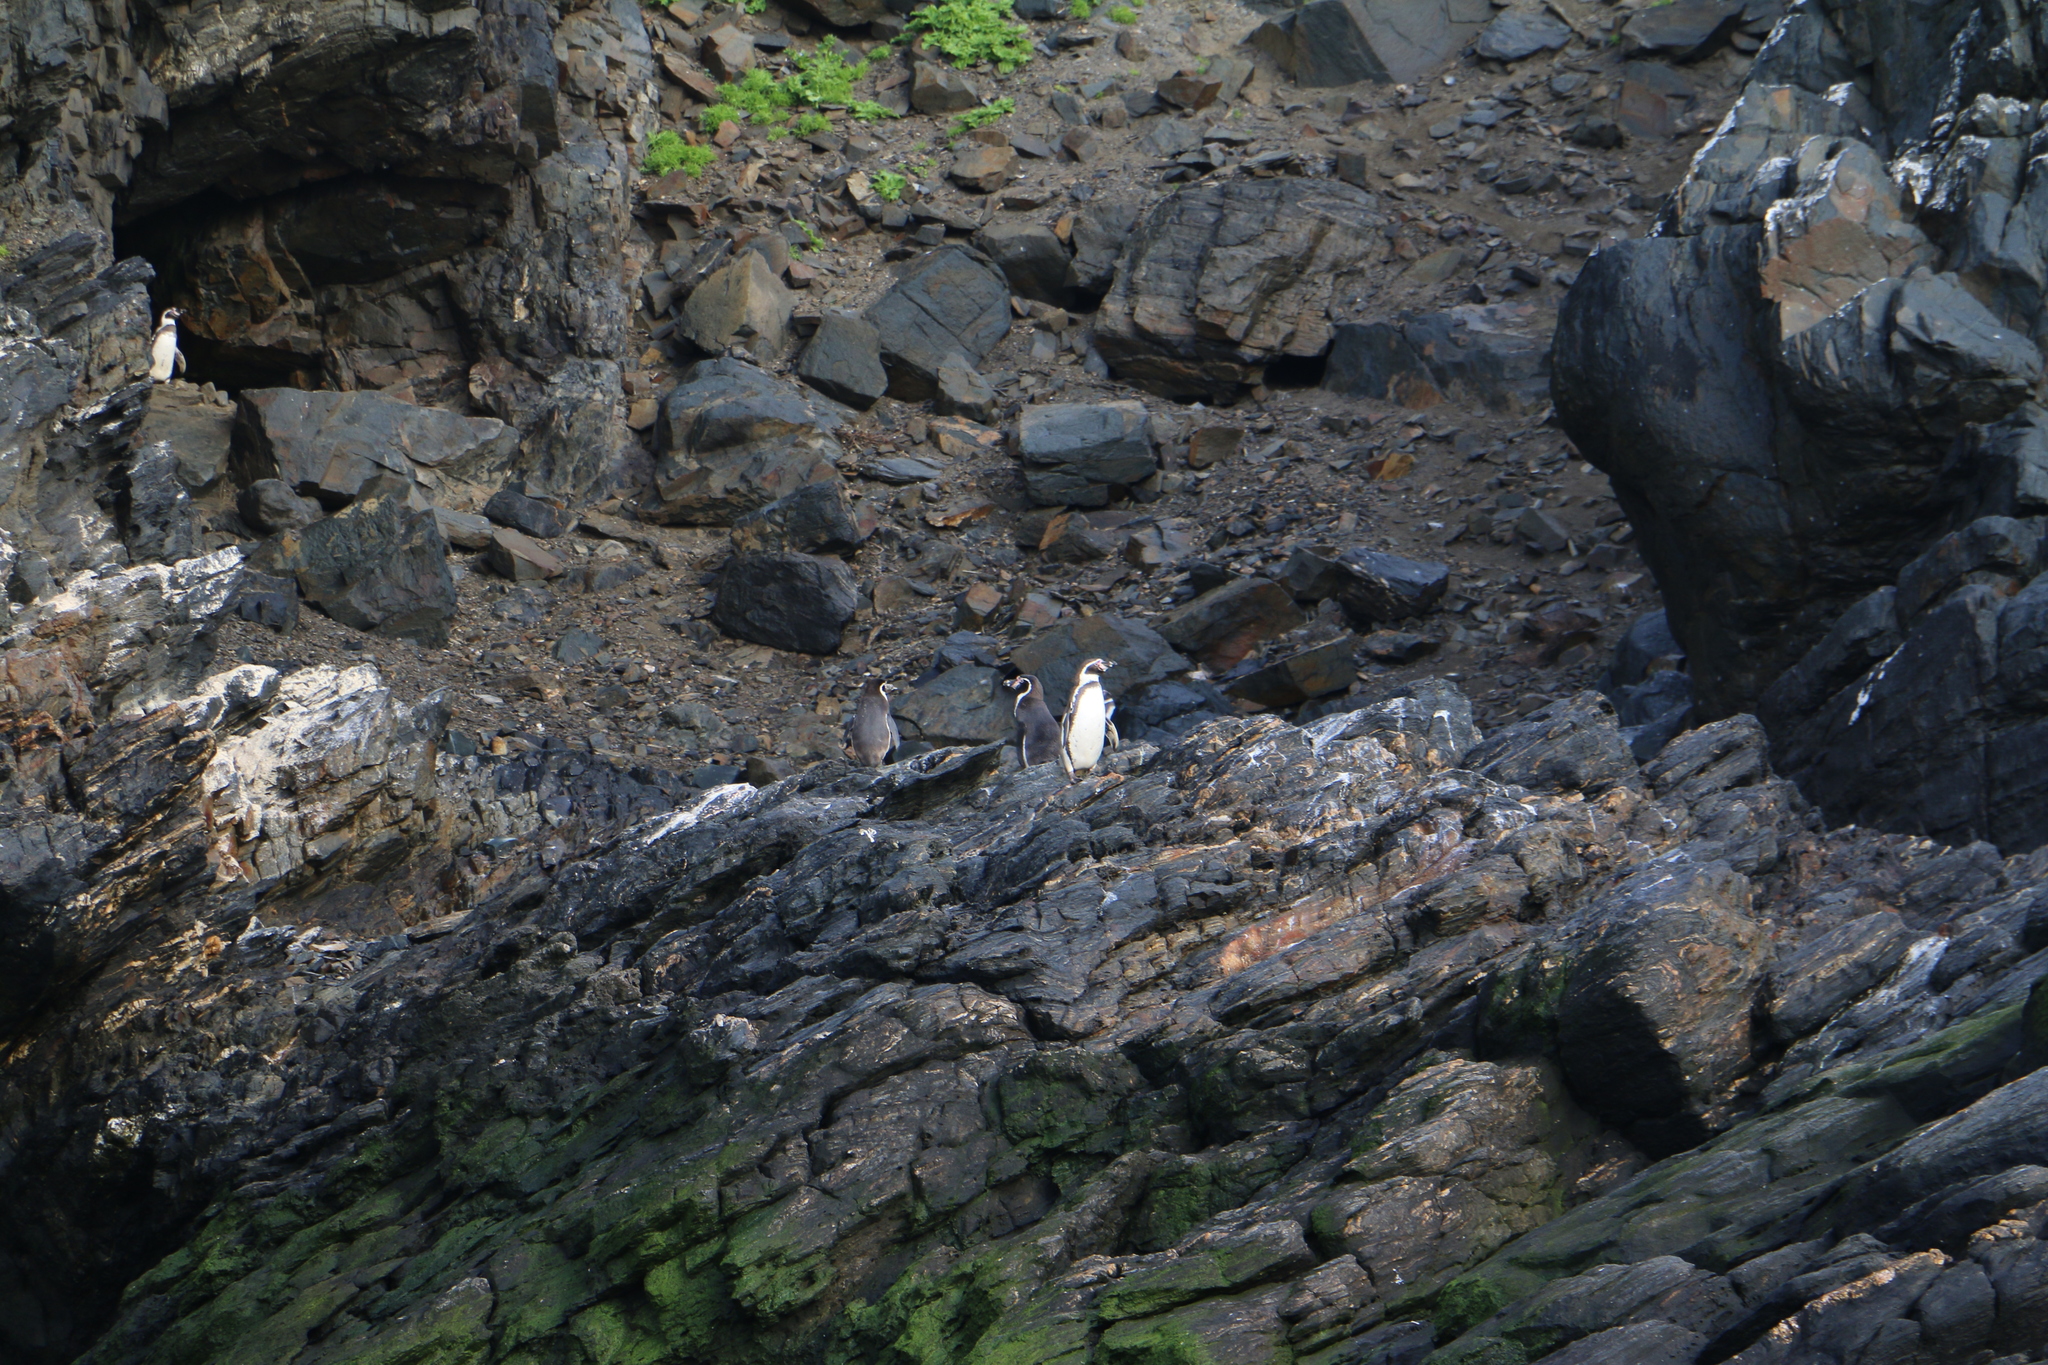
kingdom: Animalia
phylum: Chordata
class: Aves
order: Sphenisciformes
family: Spheniscidae
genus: Spheniscus
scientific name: Spheniscus humboldti
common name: Humboldt penguin
